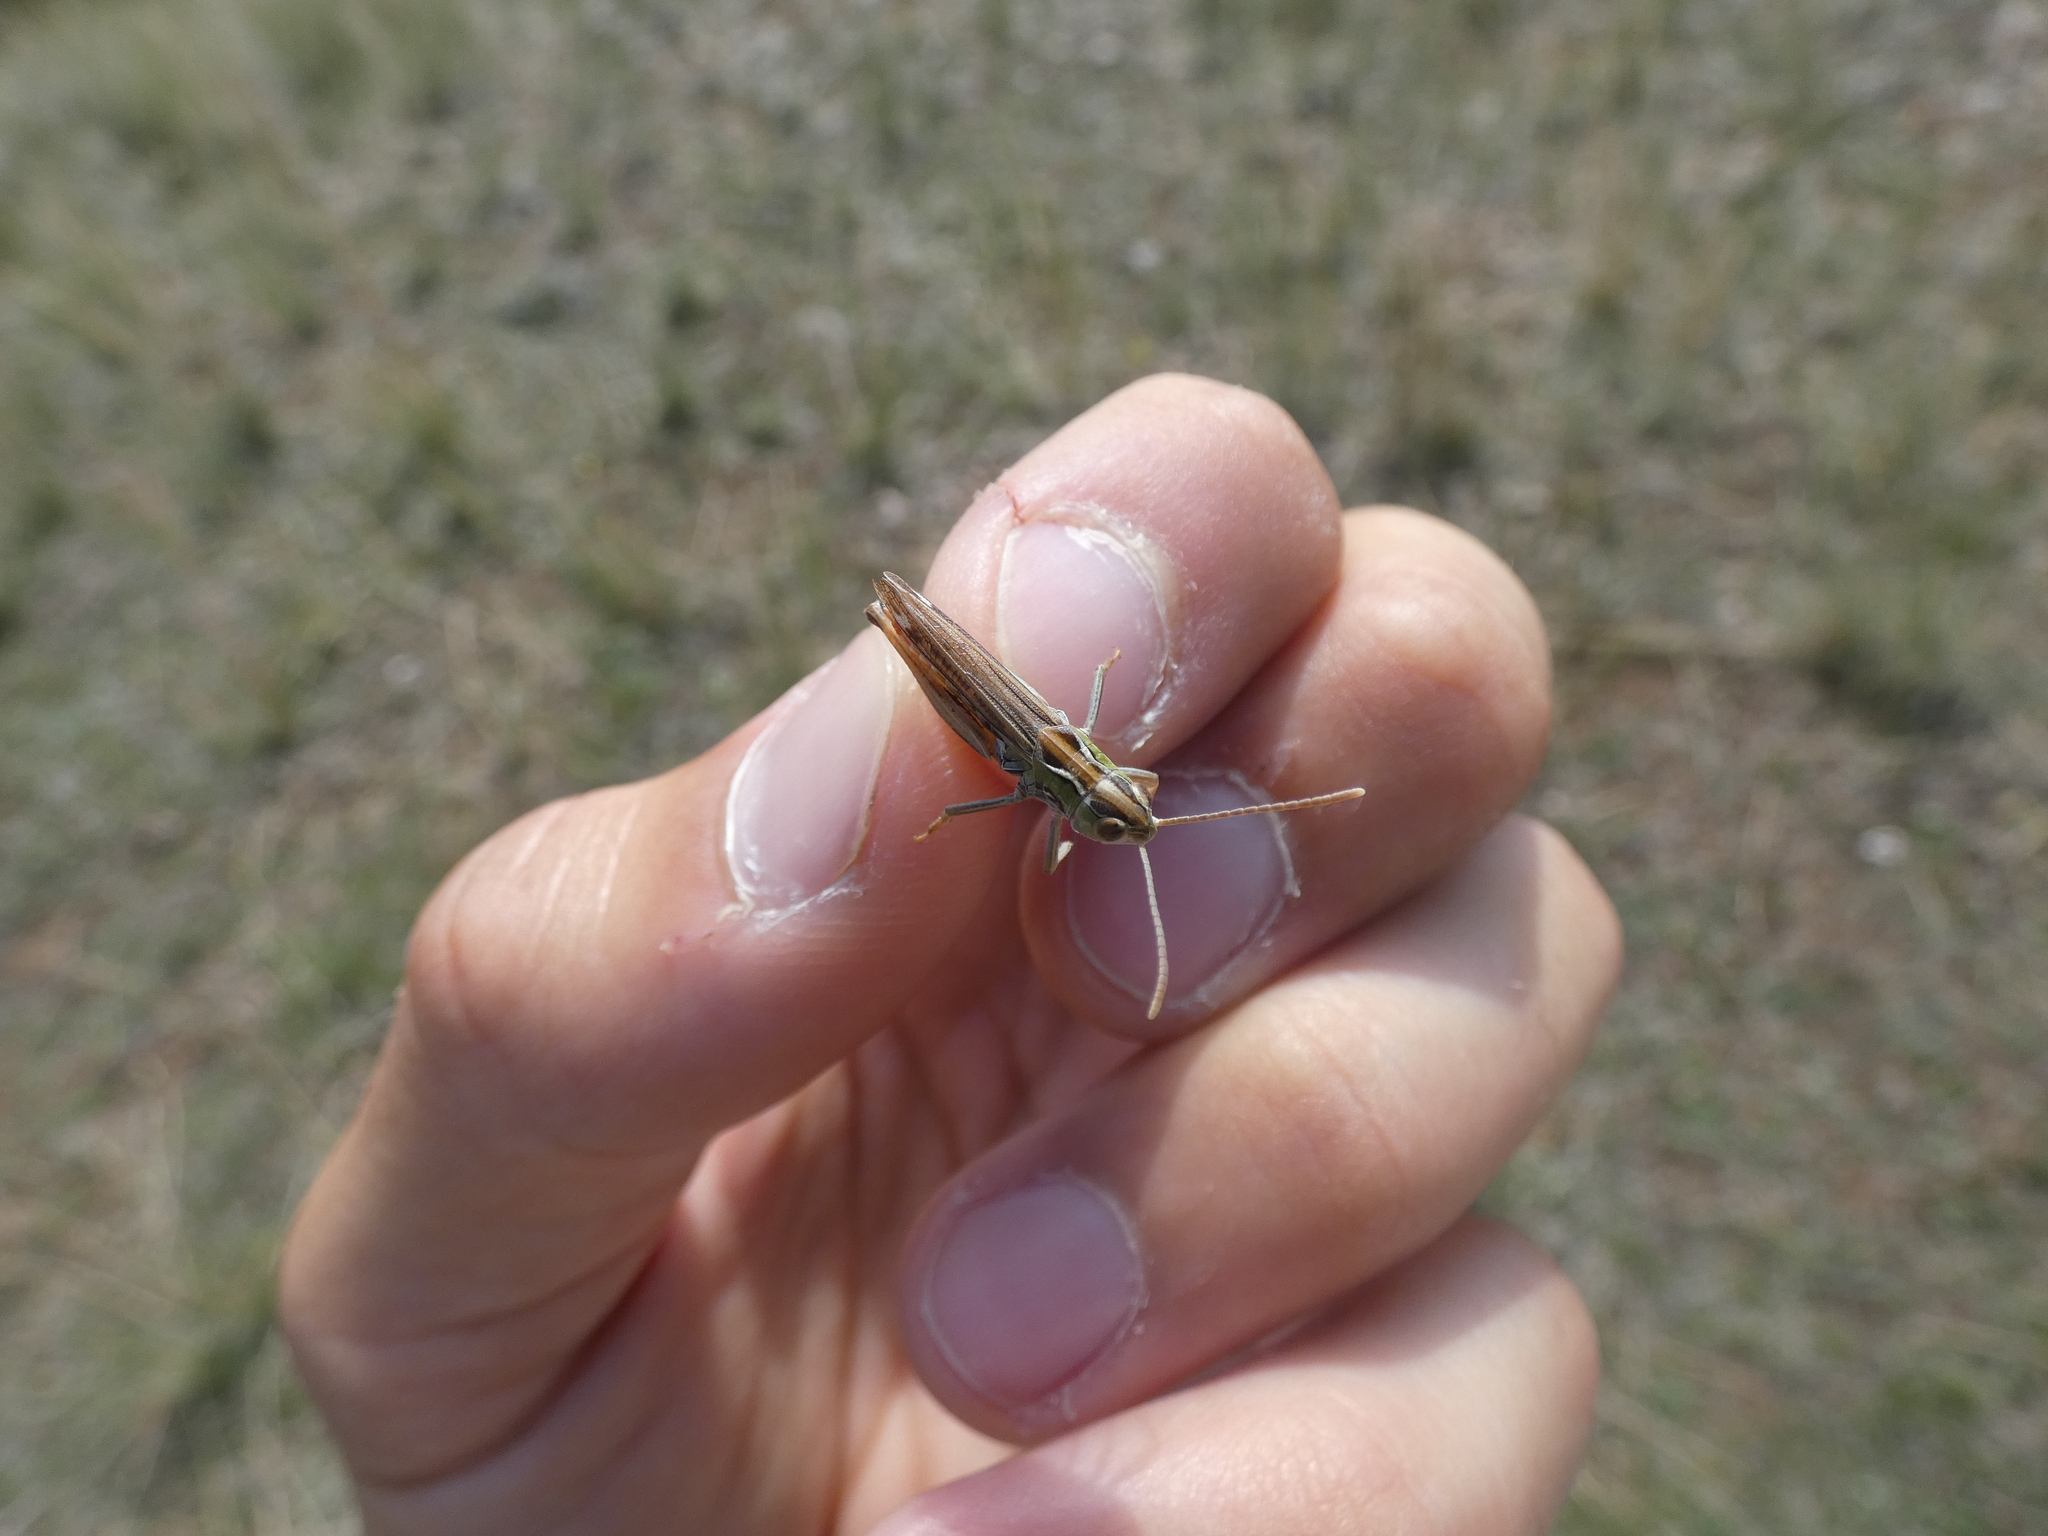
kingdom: Animalia
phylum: Arthropoda
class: Insecta
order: Orthoptera
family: Acrididae
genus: Stenobothrus
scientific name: Stenobothrus nigromaculatus
